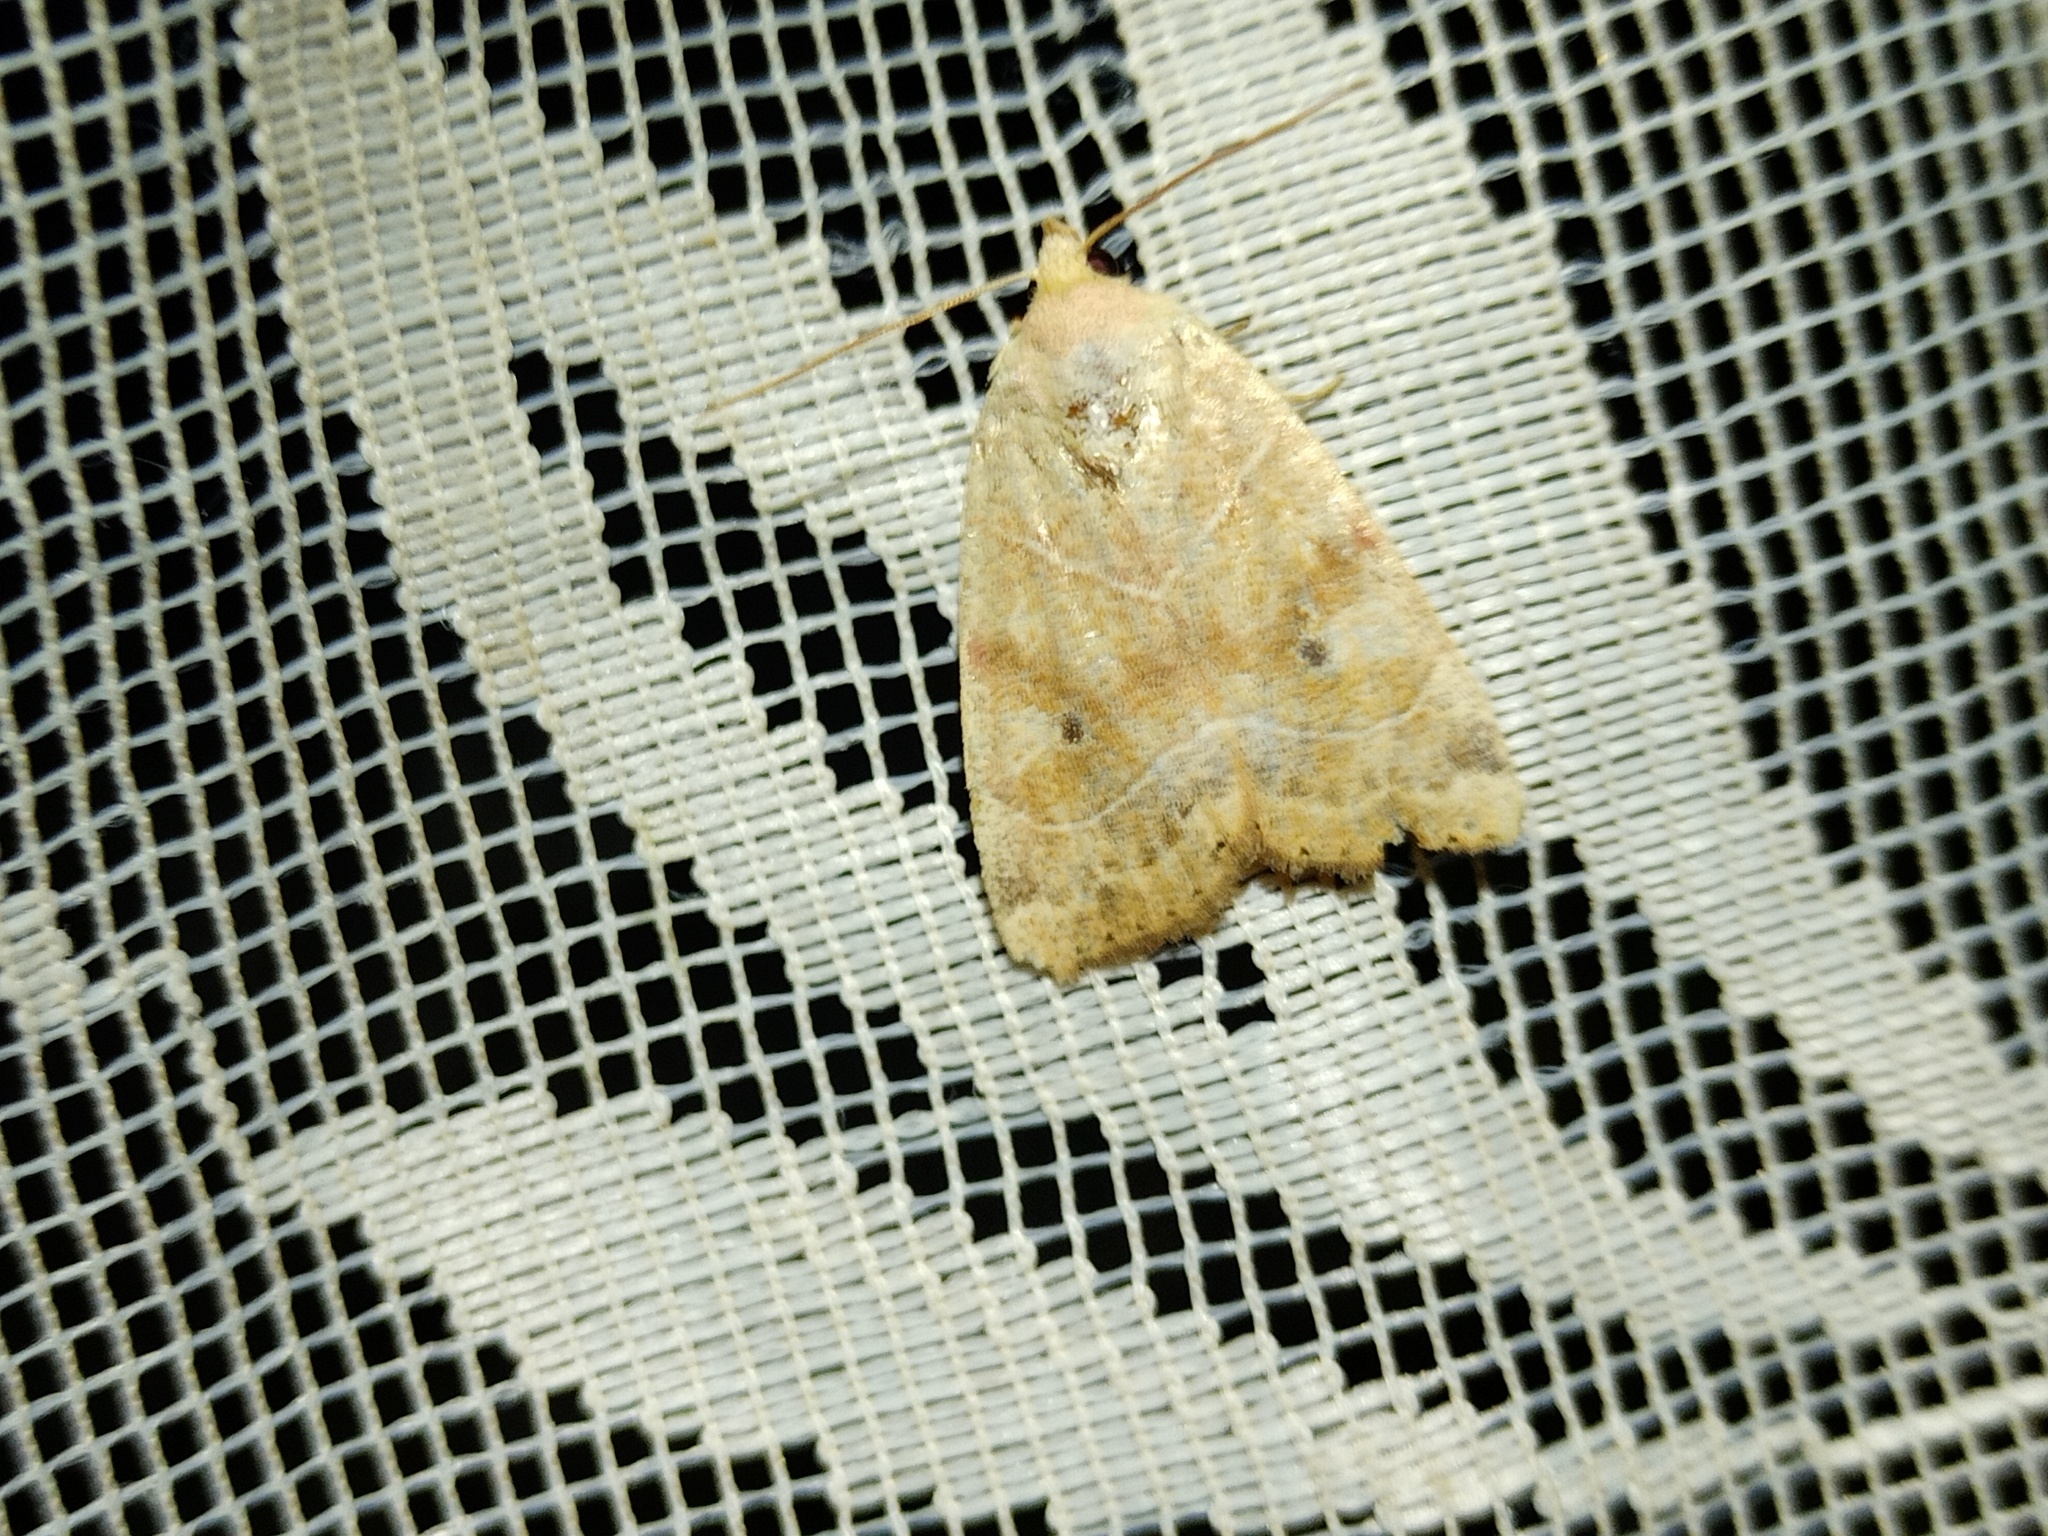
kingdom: Animalia
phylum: Arthropoda
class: Insecta
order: Lepidoptera
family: Noctuidae
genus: Cosmia
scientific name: Cosmia trapezina
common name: Dun-bar
